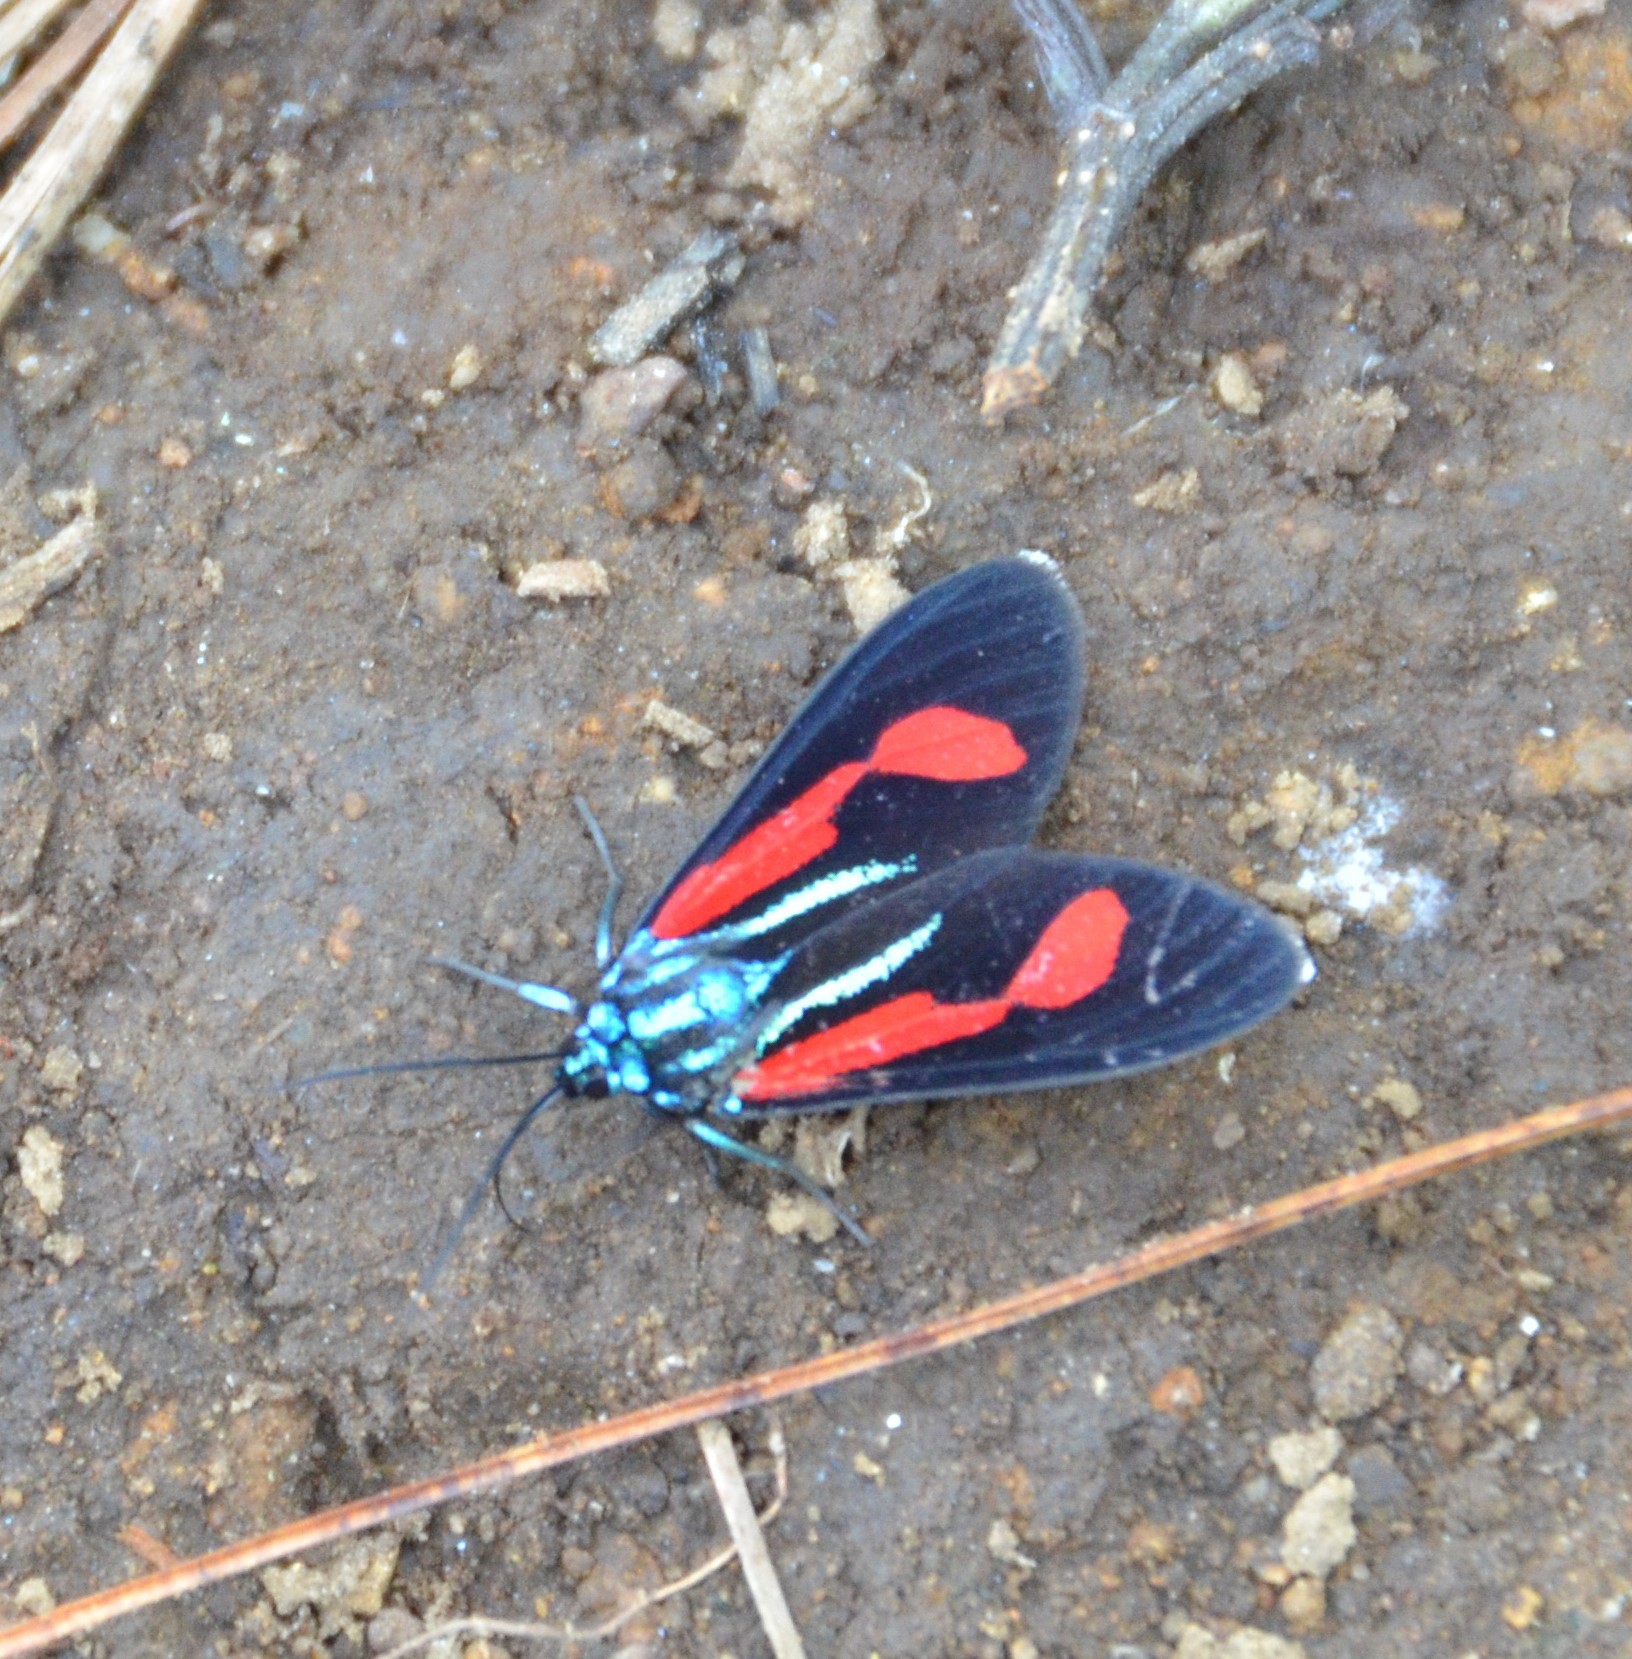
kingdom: Animalia
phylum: Arthropoda
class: Insecta
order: Lepidoptera
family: Erebidae
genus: Cyanopepla
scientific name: Cyanopepla bella
